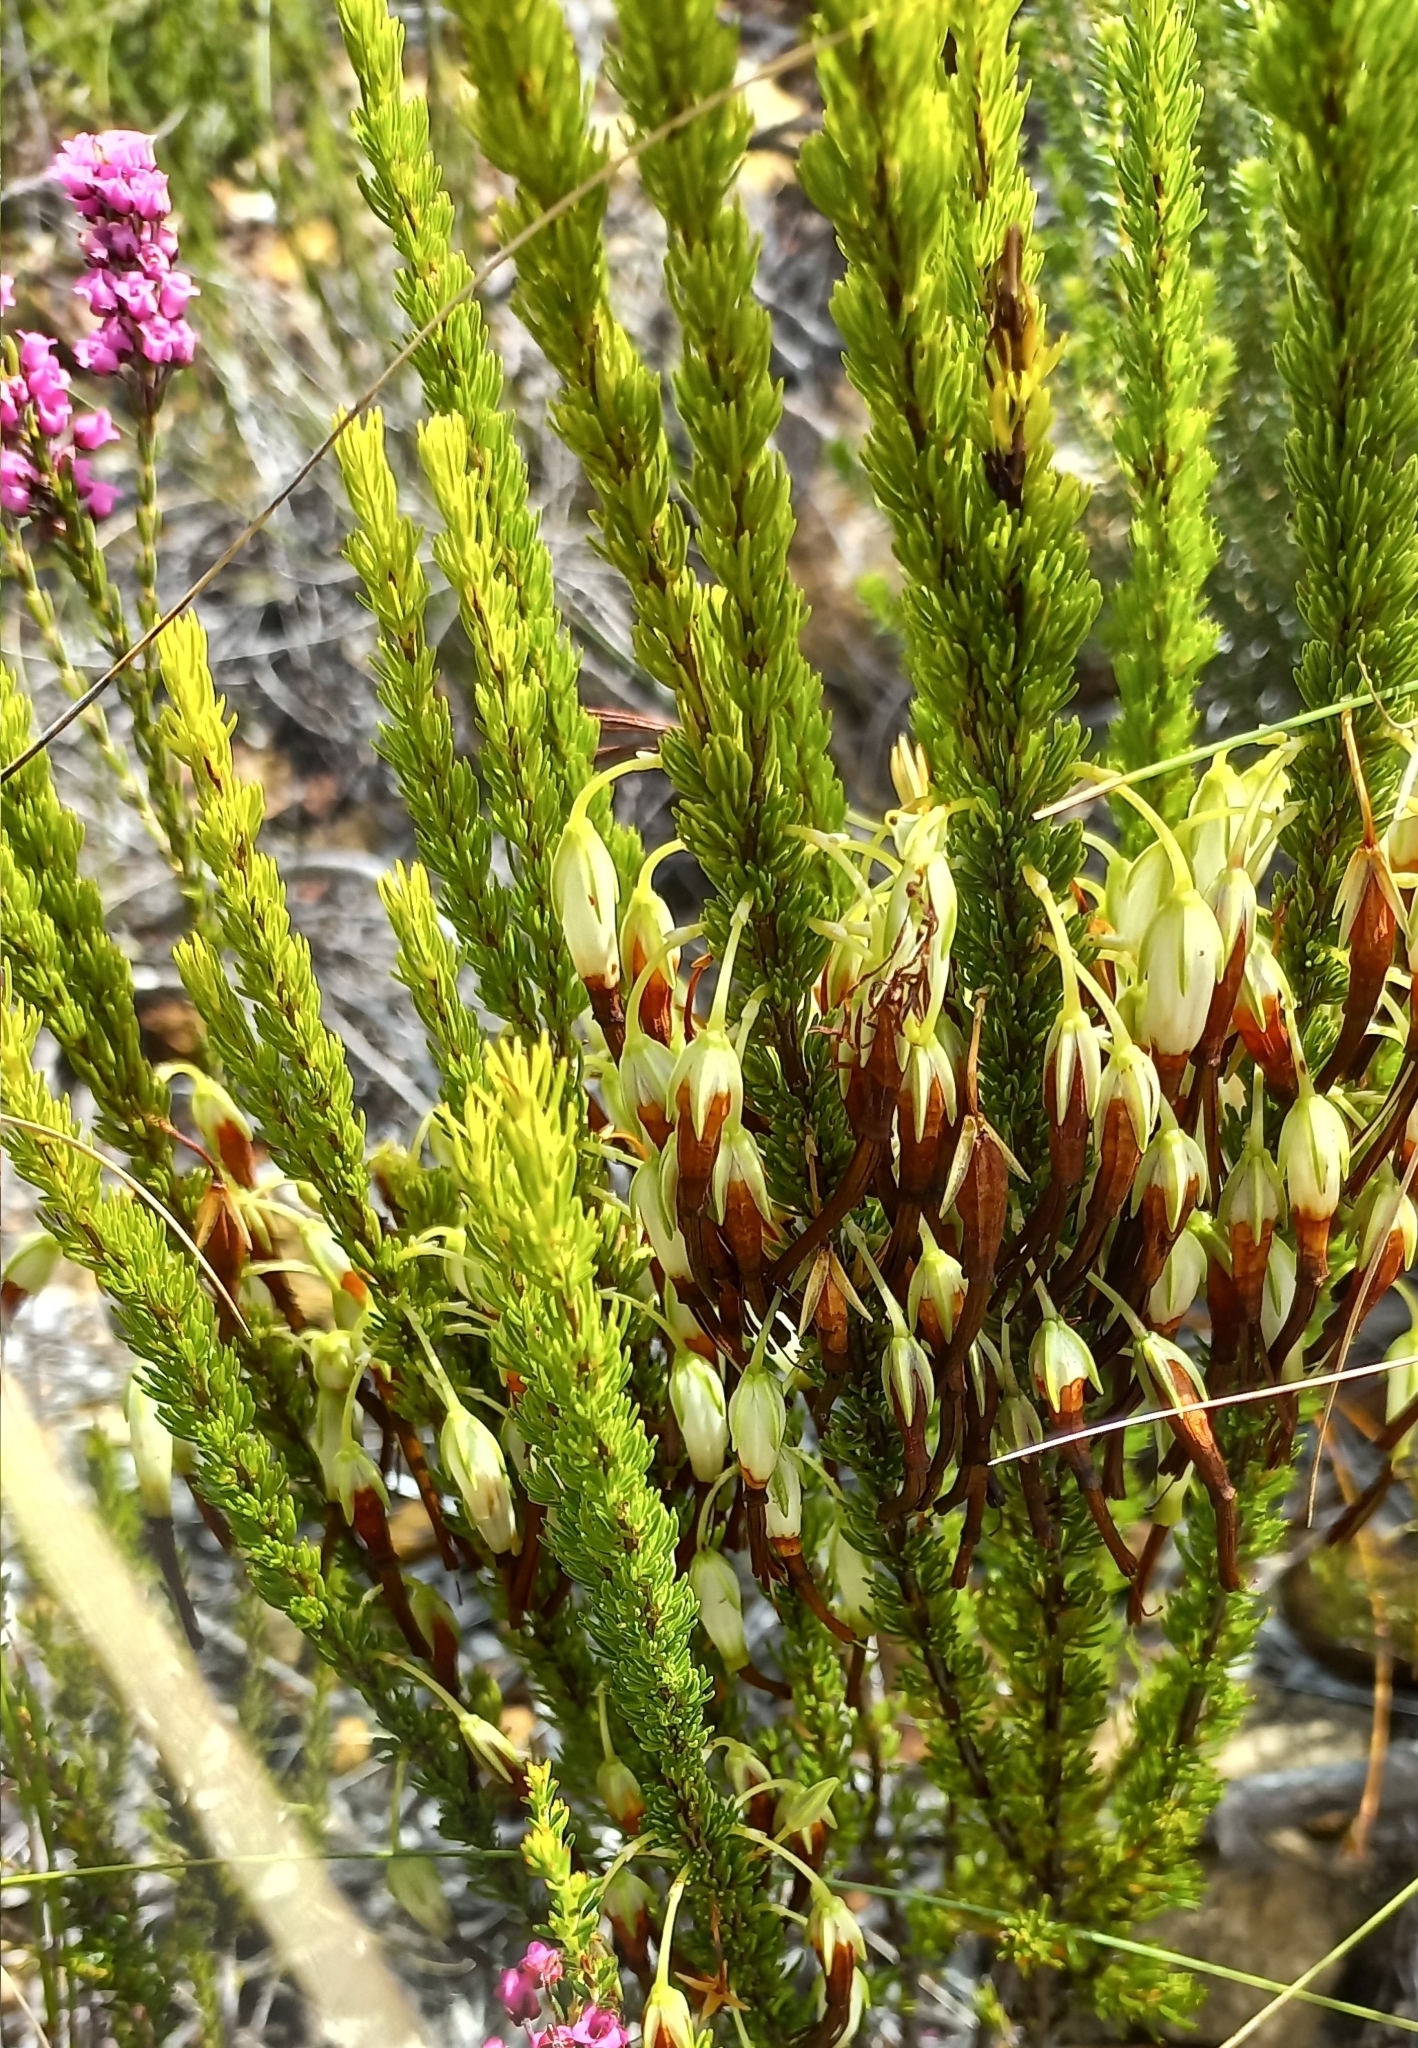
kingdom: Plantae
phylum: Tracheophyta
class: Magnoliopsida
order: Ericales
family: Ericaceae
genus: Erica
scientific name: Erica plukenetii
